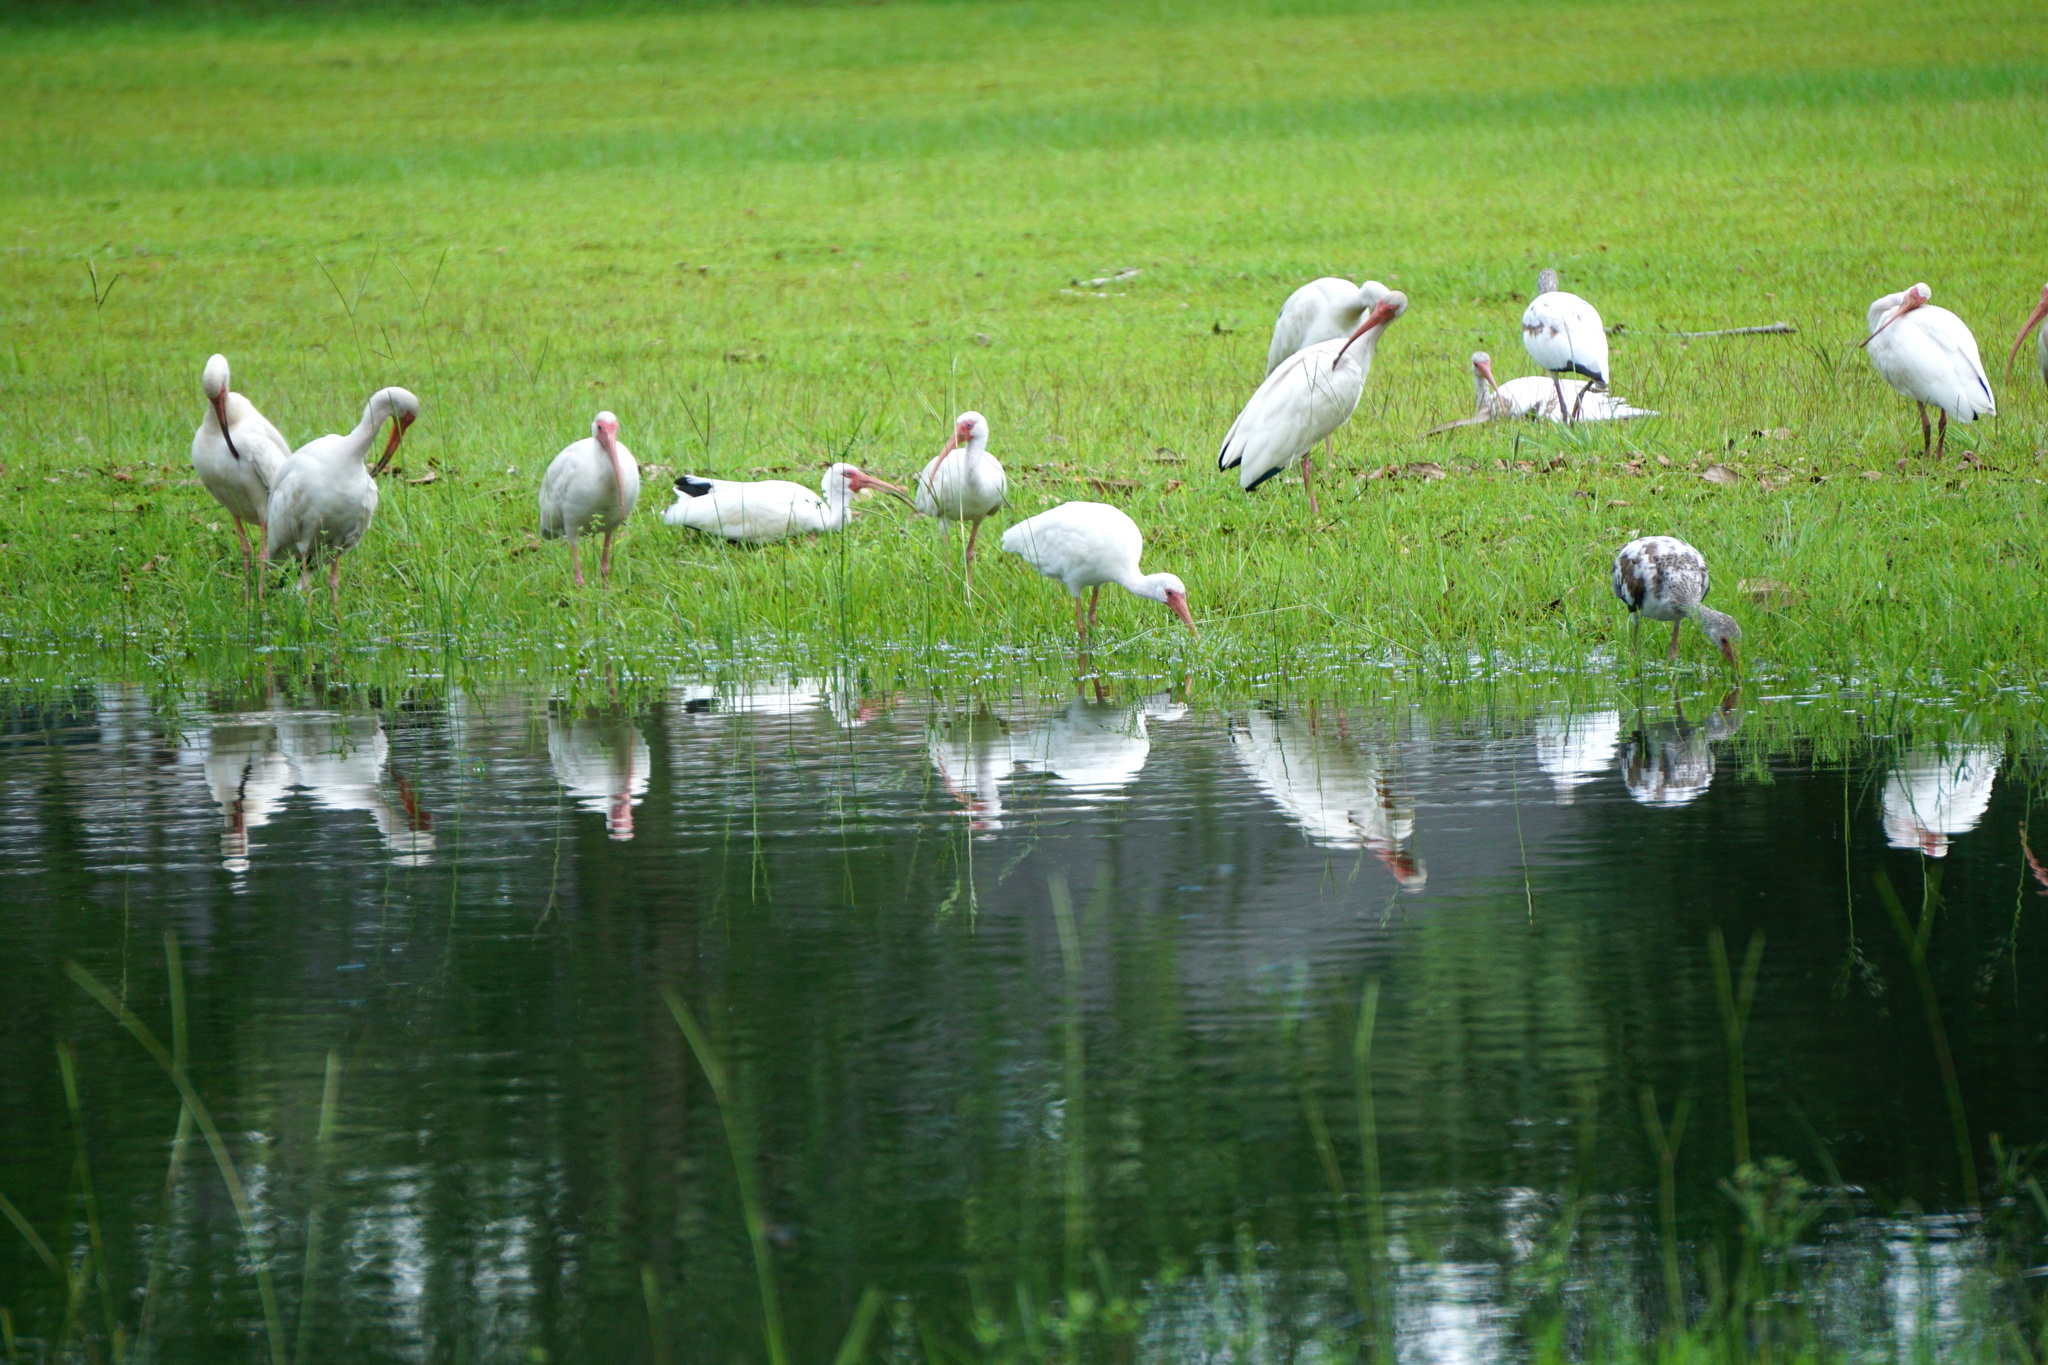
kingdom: Animalia
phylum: Chordata
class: Aves
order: Pelecaniformes
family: Threskiornithidae
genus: Eudocimus
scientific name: Eudocimus albus
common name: White ibis
